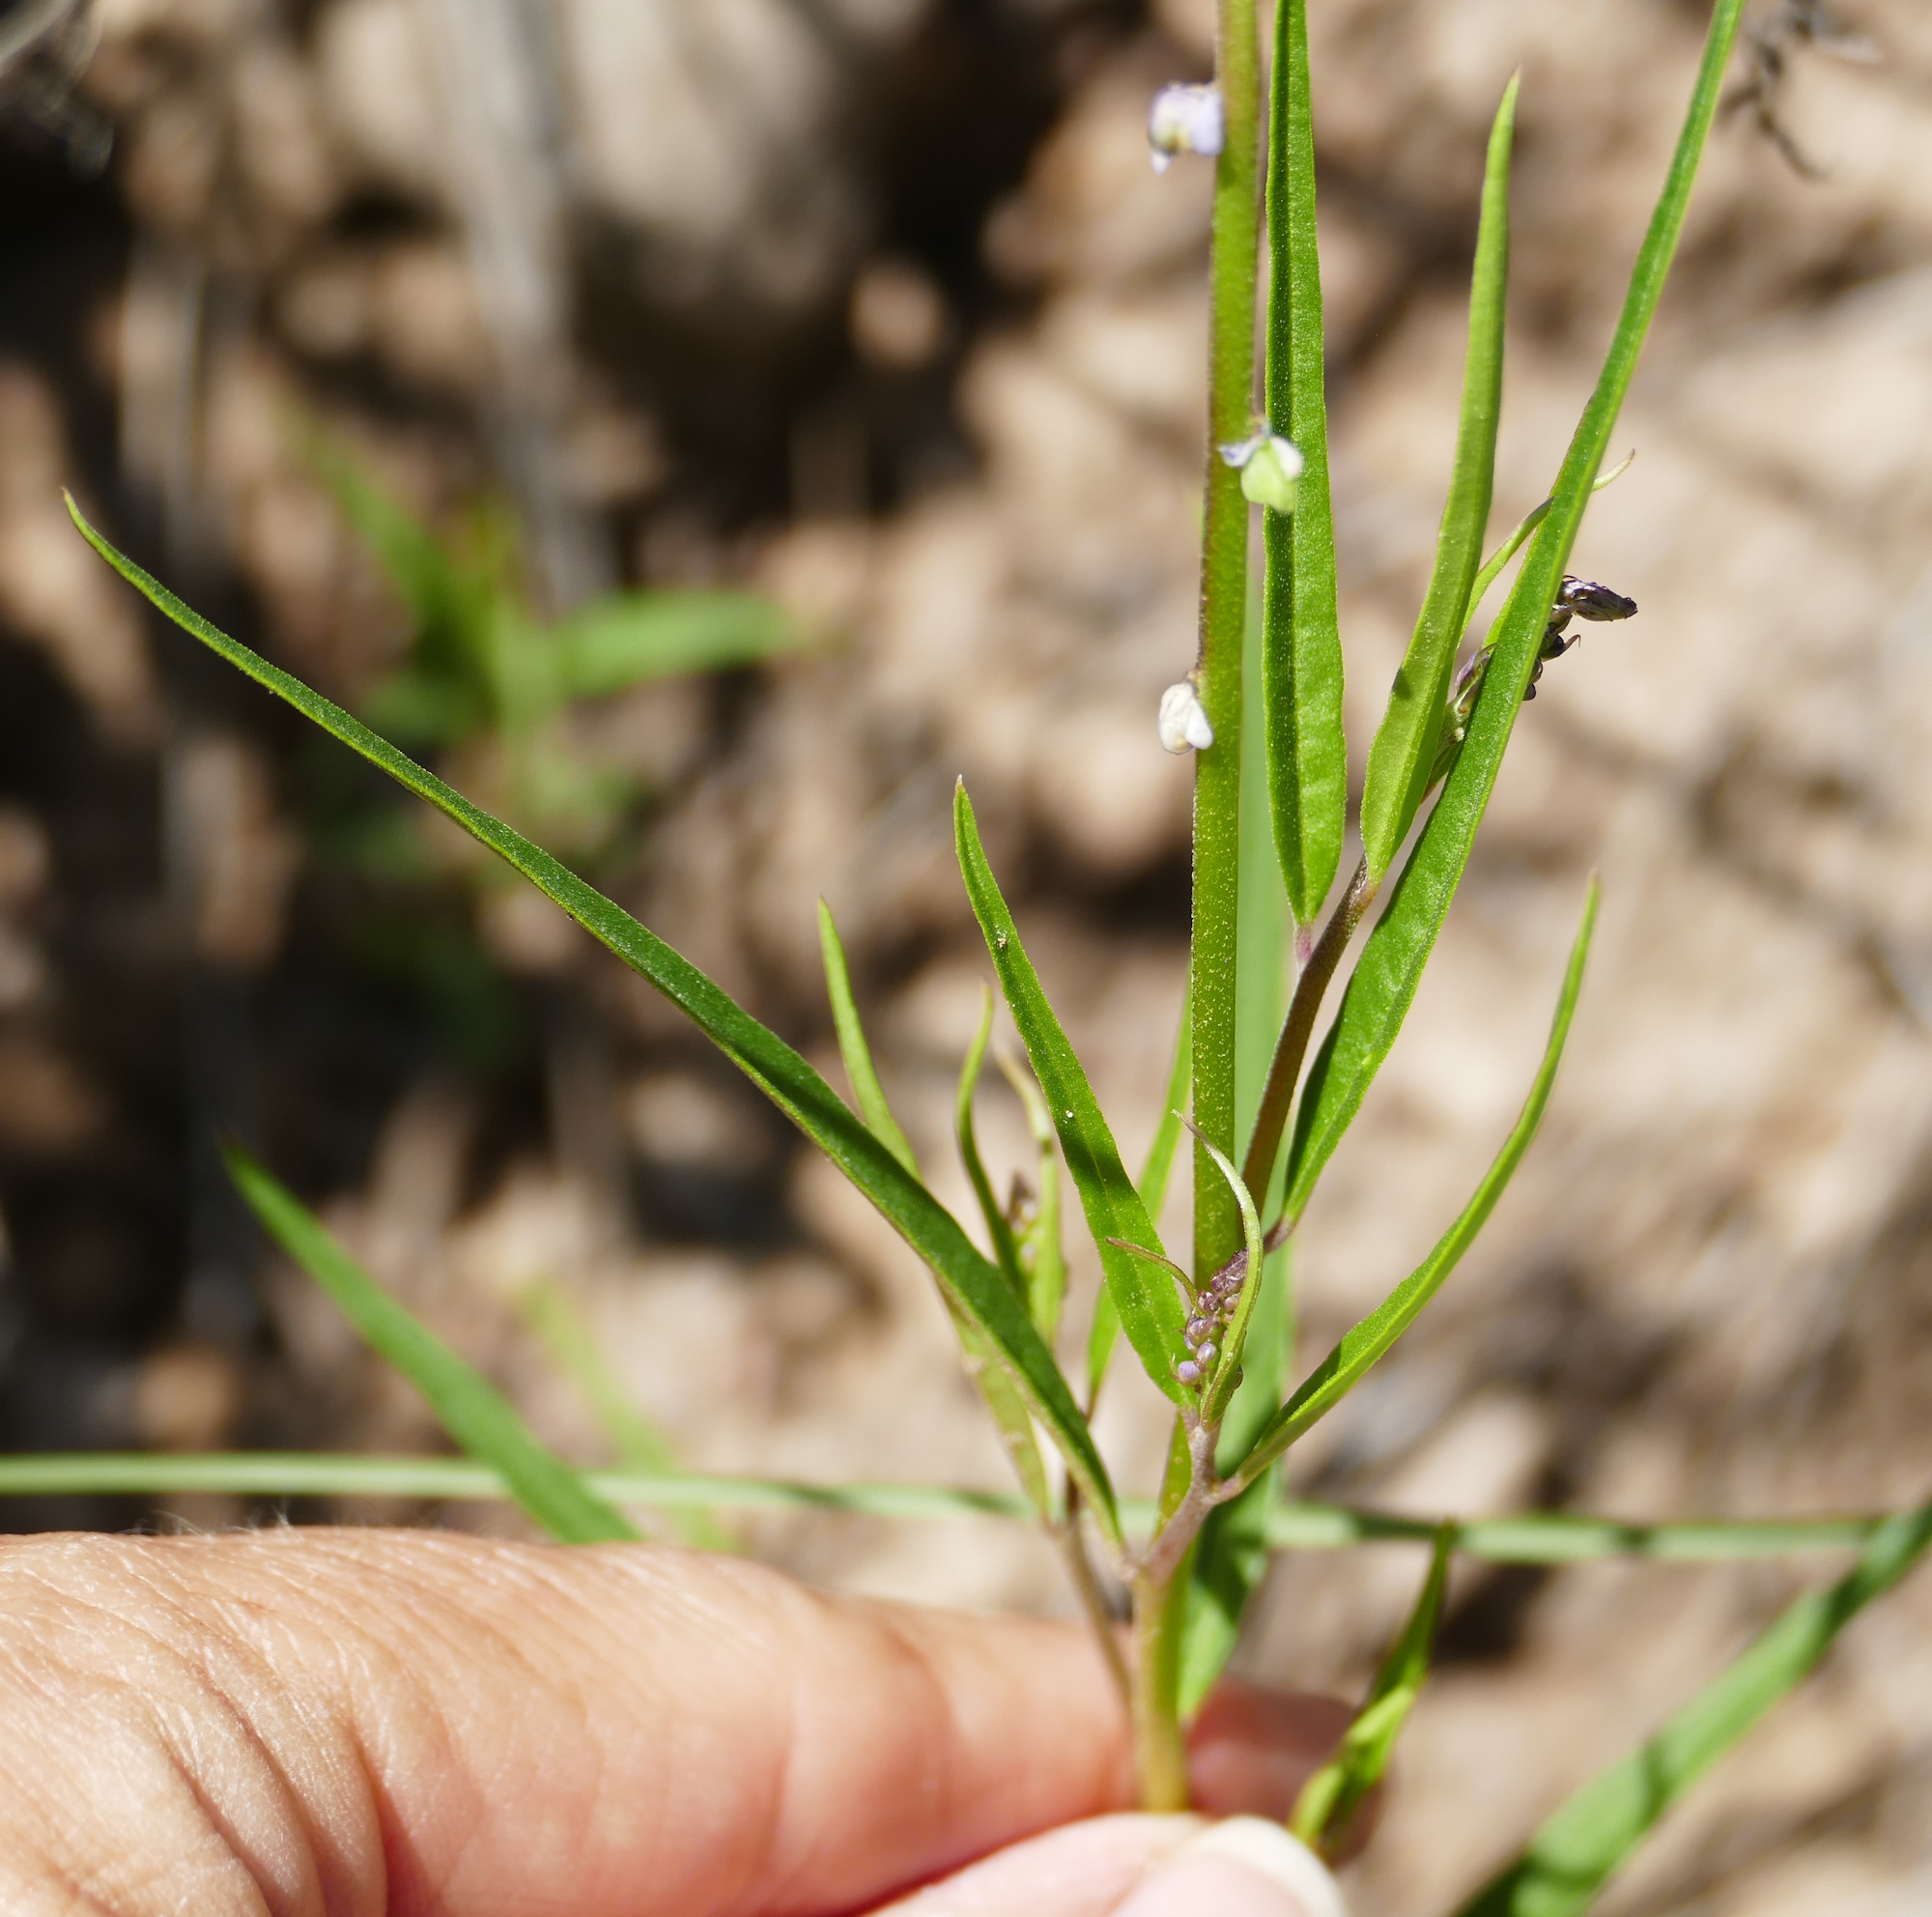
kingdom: Plantae
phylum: Tracheophyta
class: Magnoliopsida
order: Fabales
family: Polygalaceae
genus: Monnina
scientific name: Monnina wrightii
